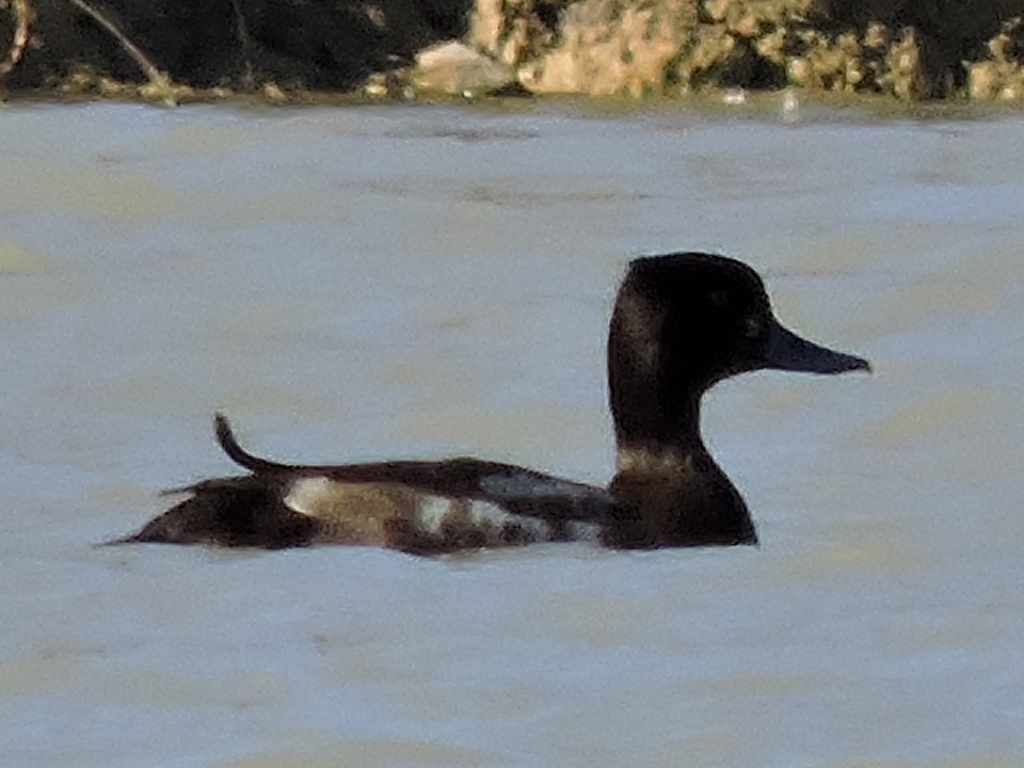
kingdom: Animalia
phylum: Chordata
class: Aves
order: Anseriformes
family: Anatidae
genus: Aythya
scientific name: Aythya affinis
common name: Lesser scaup
